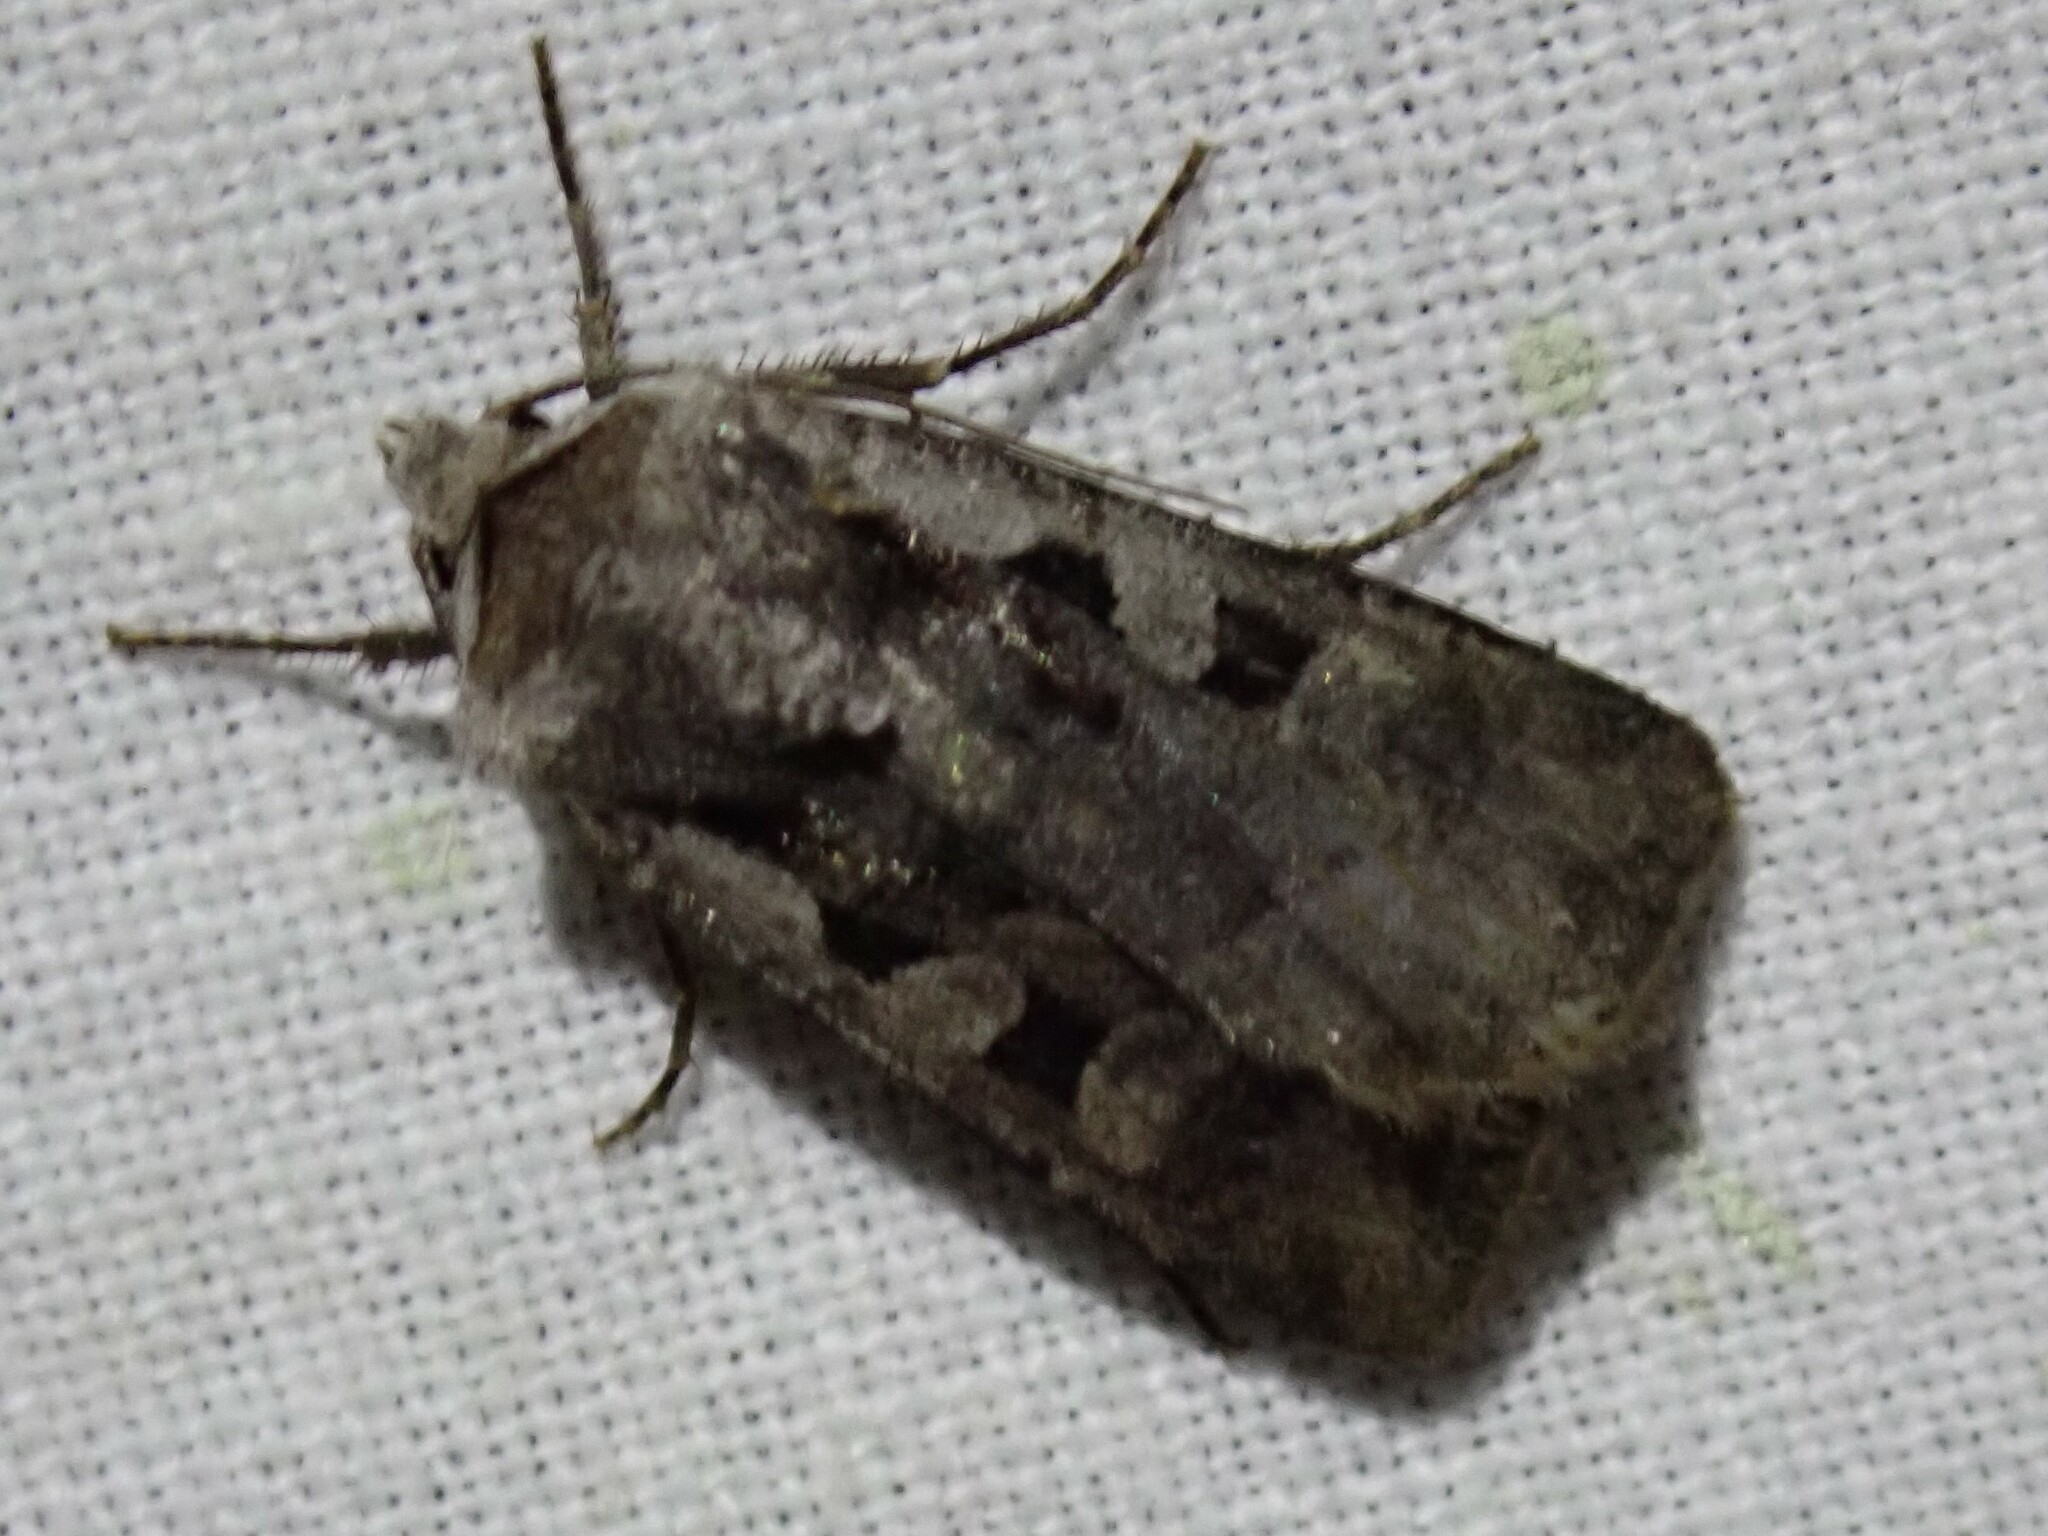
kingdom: Animalia
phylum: Arthropoda
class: Insecta
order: Lepidoptera
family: Noctuidae
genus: Euxoa
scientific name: Euxoa tessellata
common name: Striped cutworm
